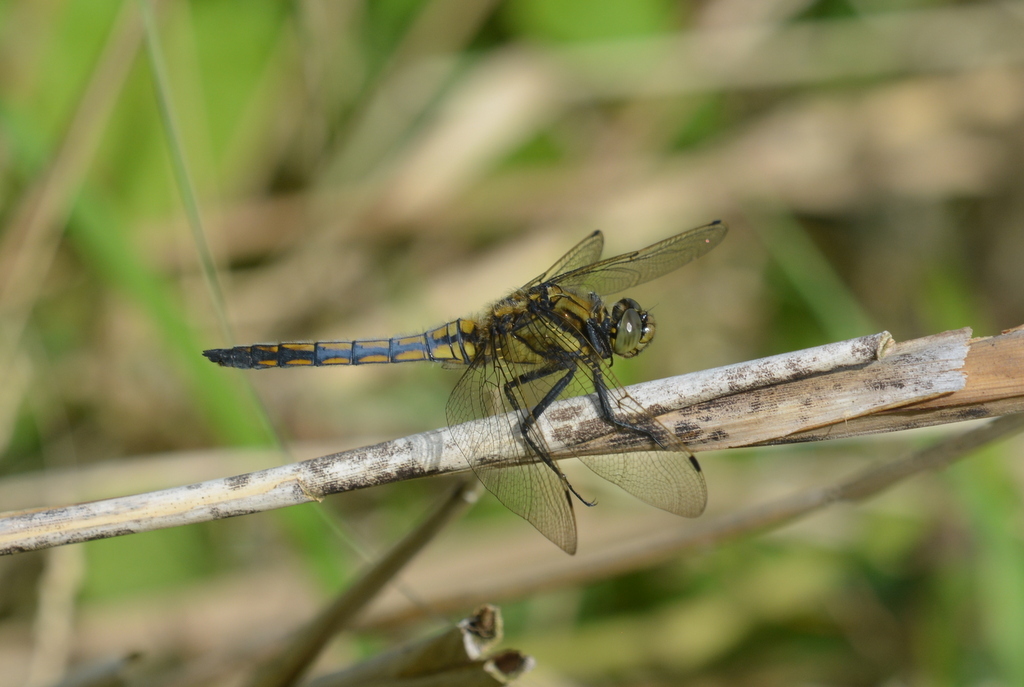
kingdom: Animalia
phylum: Arthropoda
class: Insecta
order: Odonata
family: Libellulidae
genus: Orthetrum
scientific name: Orthetrum cancellatum
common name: Black-tailed skimmer
